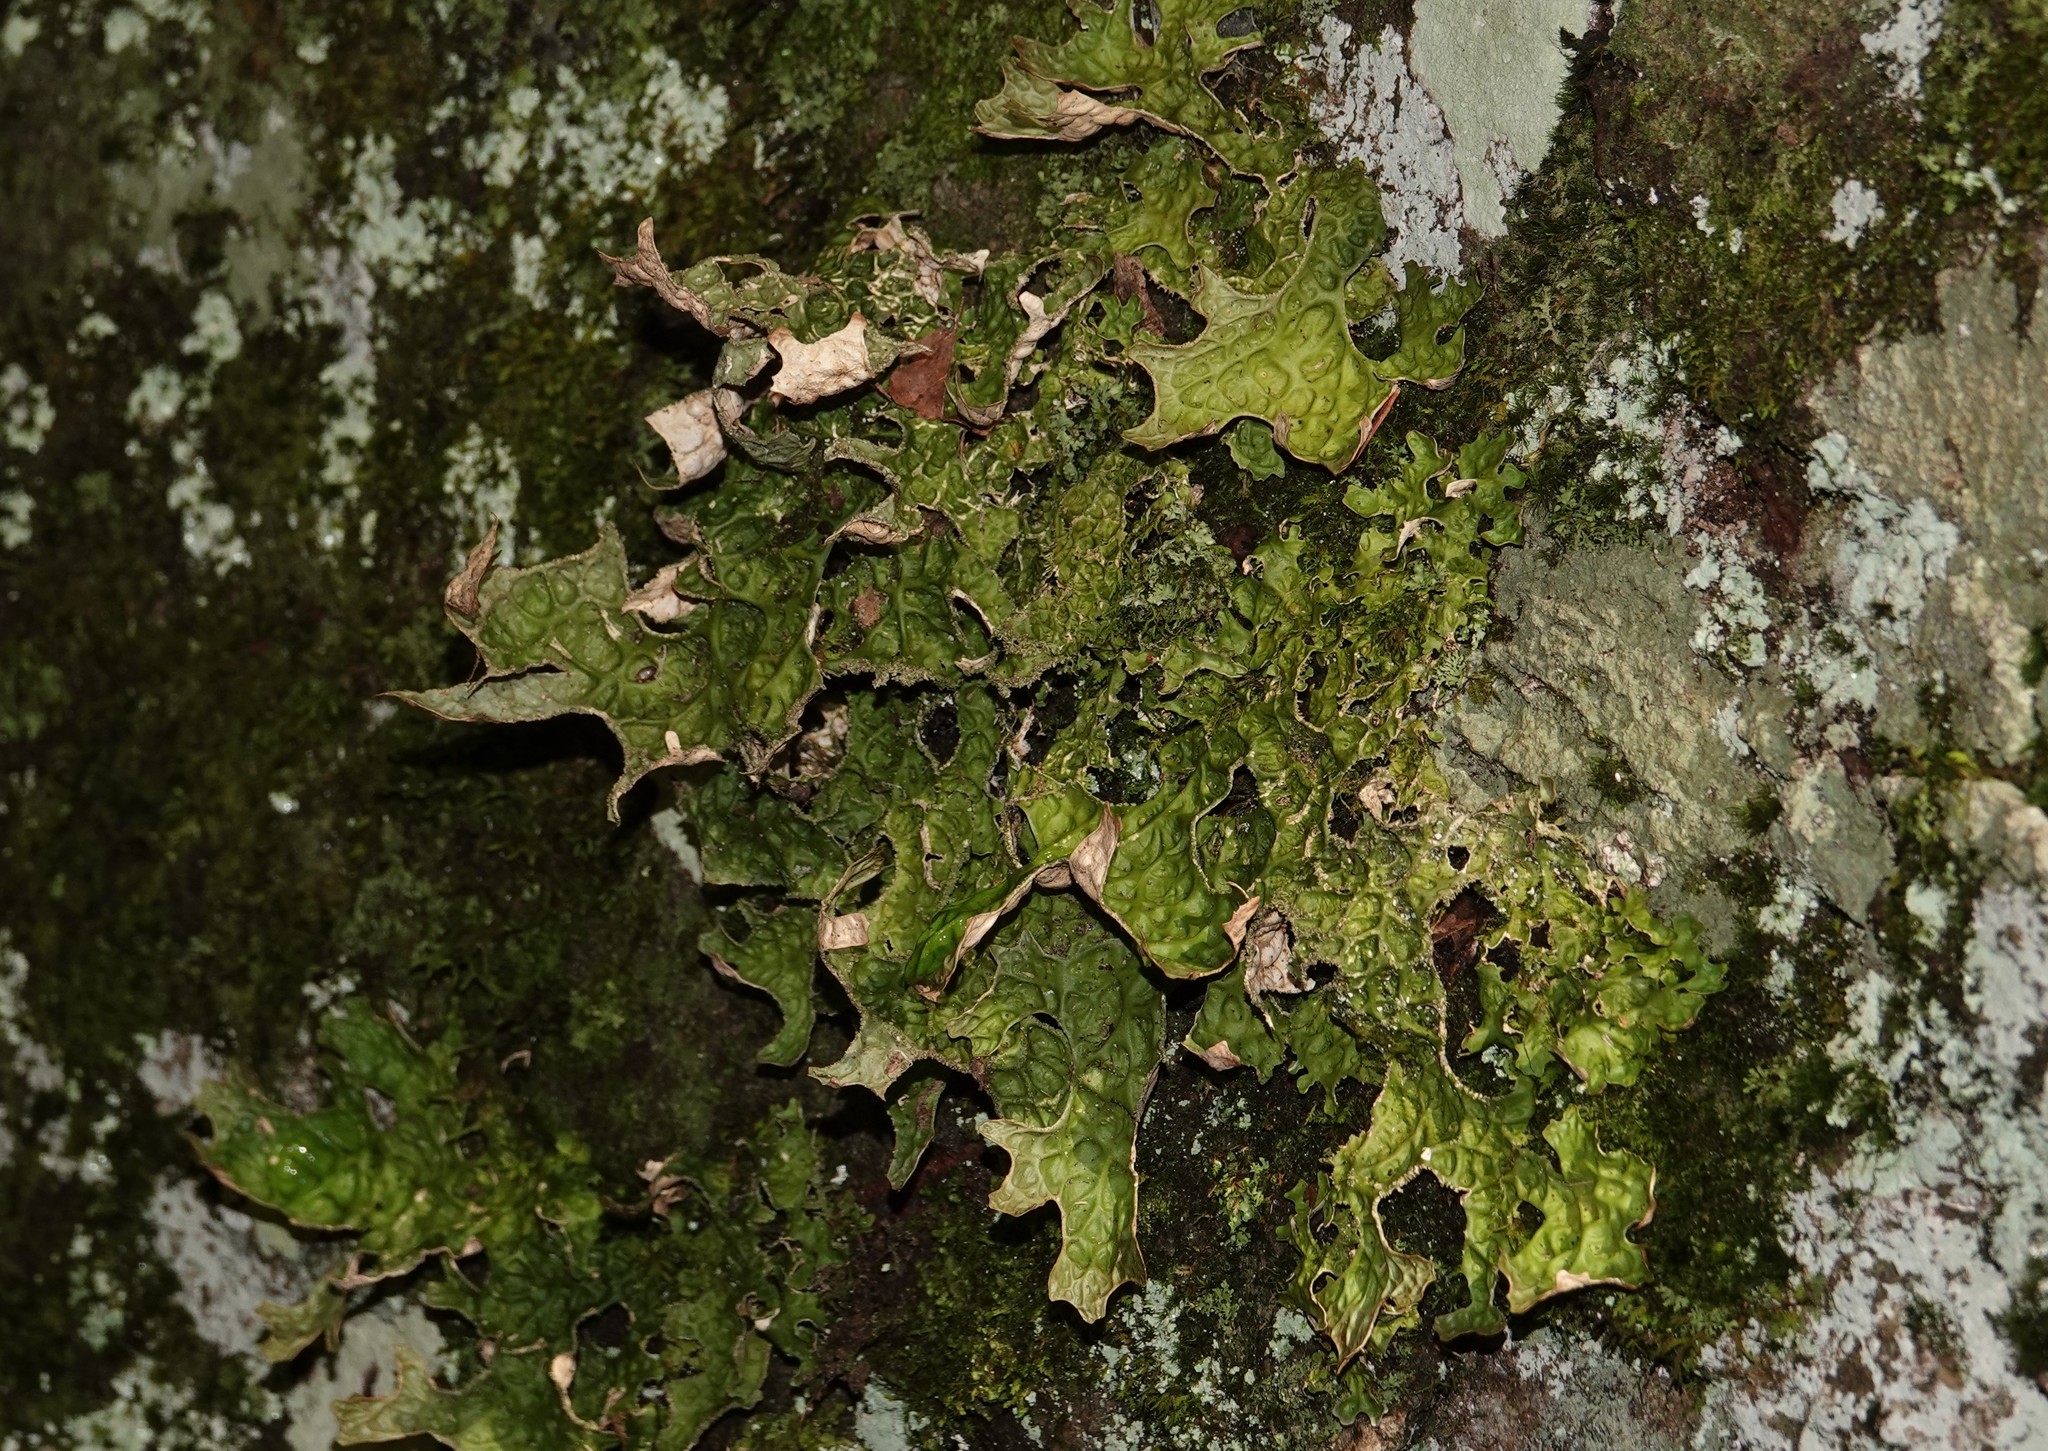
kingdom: Fungi
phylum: Ascomycota
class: Lecanoromycetes
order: Peltigerales
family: Lobariaceae
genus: Lobaria
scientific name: Lobaria pulmonaria
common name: Lungwort
